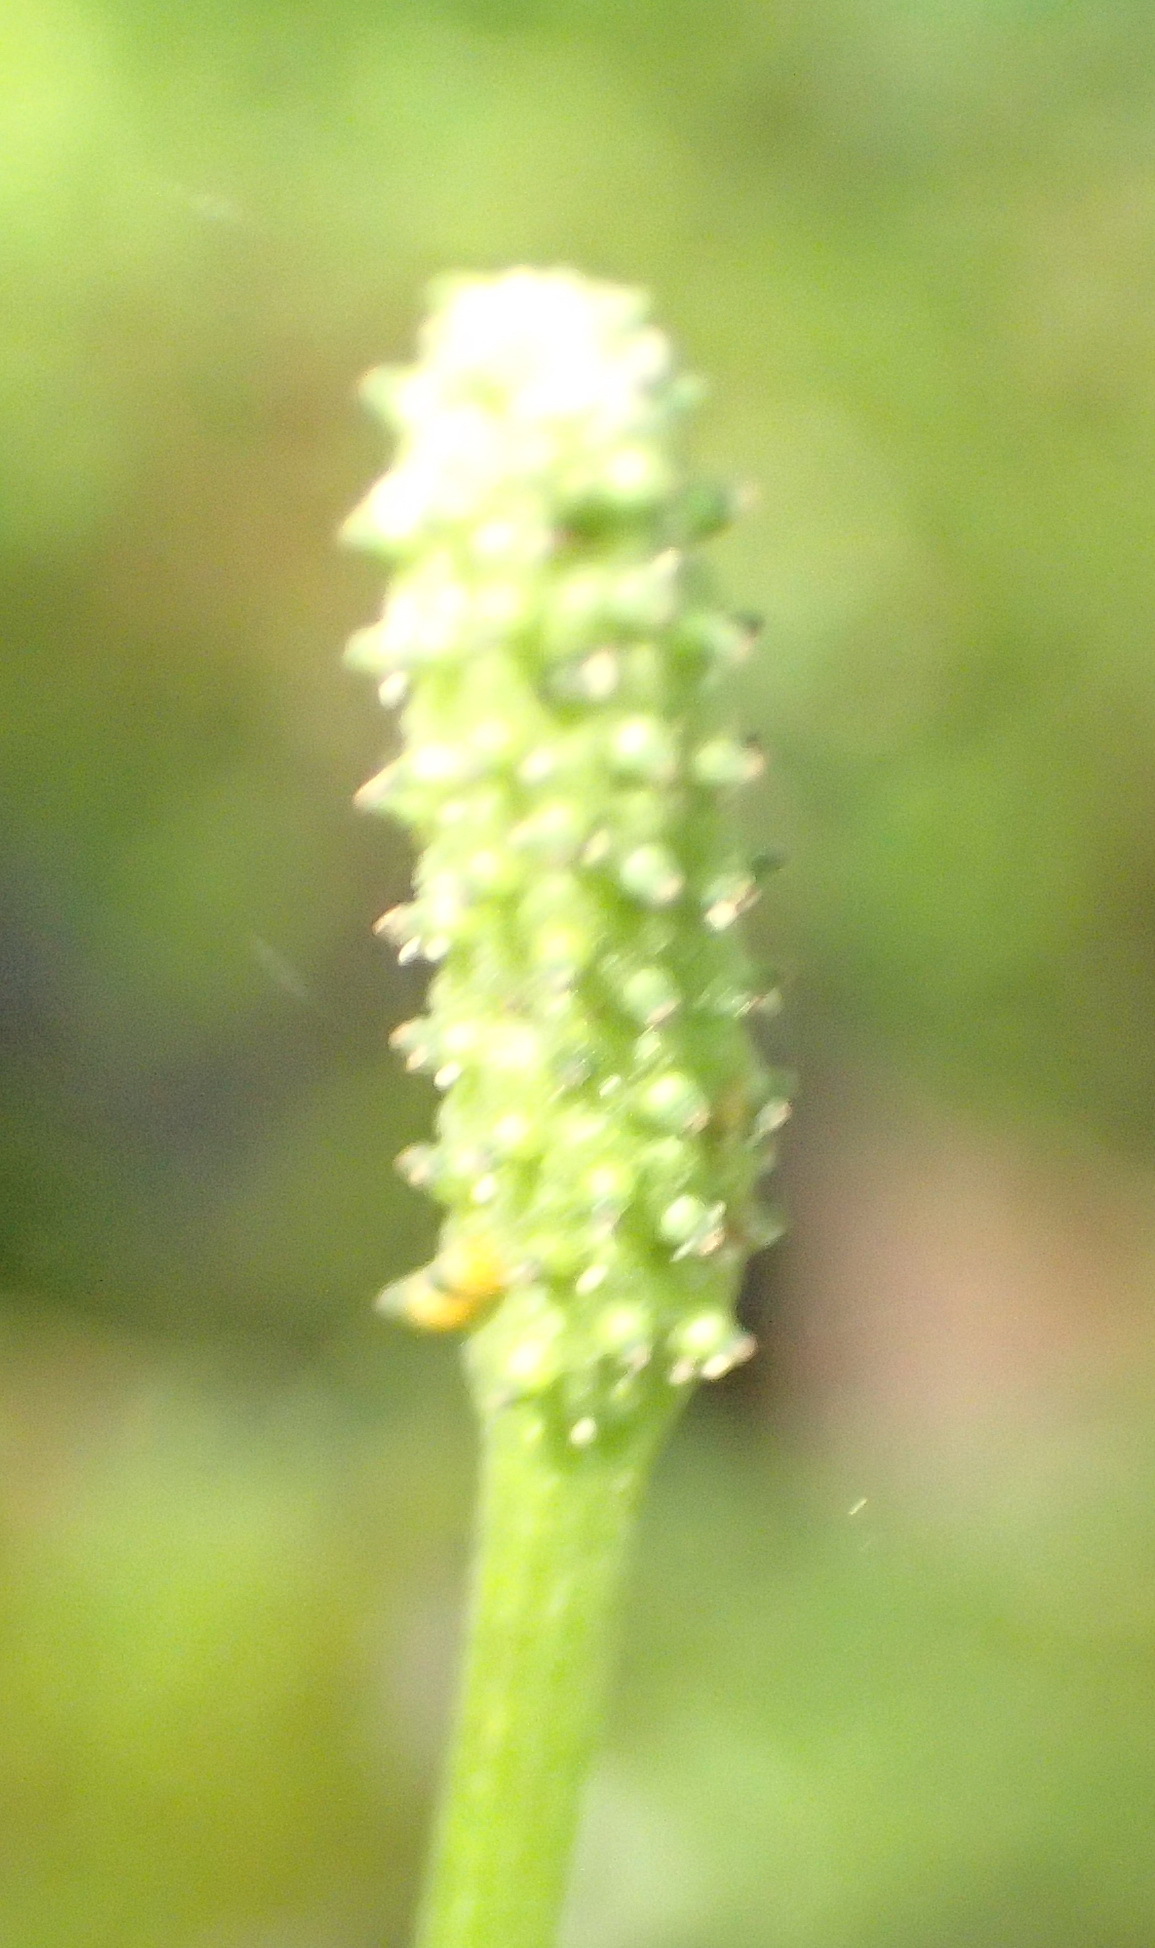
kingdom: Plantae
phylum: Tracheophyta
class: Magnoliopsida
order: Piperales
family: Piperaceae
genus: Peperomia
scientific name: Peperomia tetraphylla
